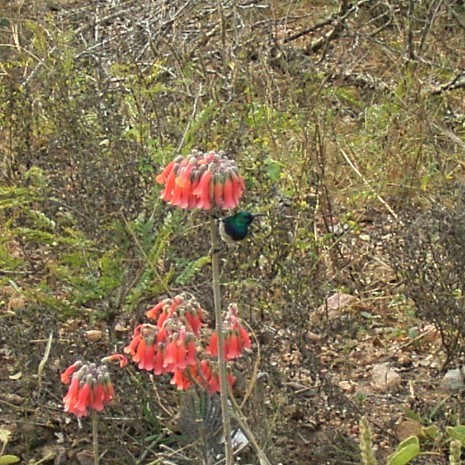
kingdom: Animalia
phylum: Chordata
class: Aves
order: Passeriformes
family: Nectariniidae
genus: Cinnyris
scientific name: Cinnyris talatala
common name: White-bellied sunbird
